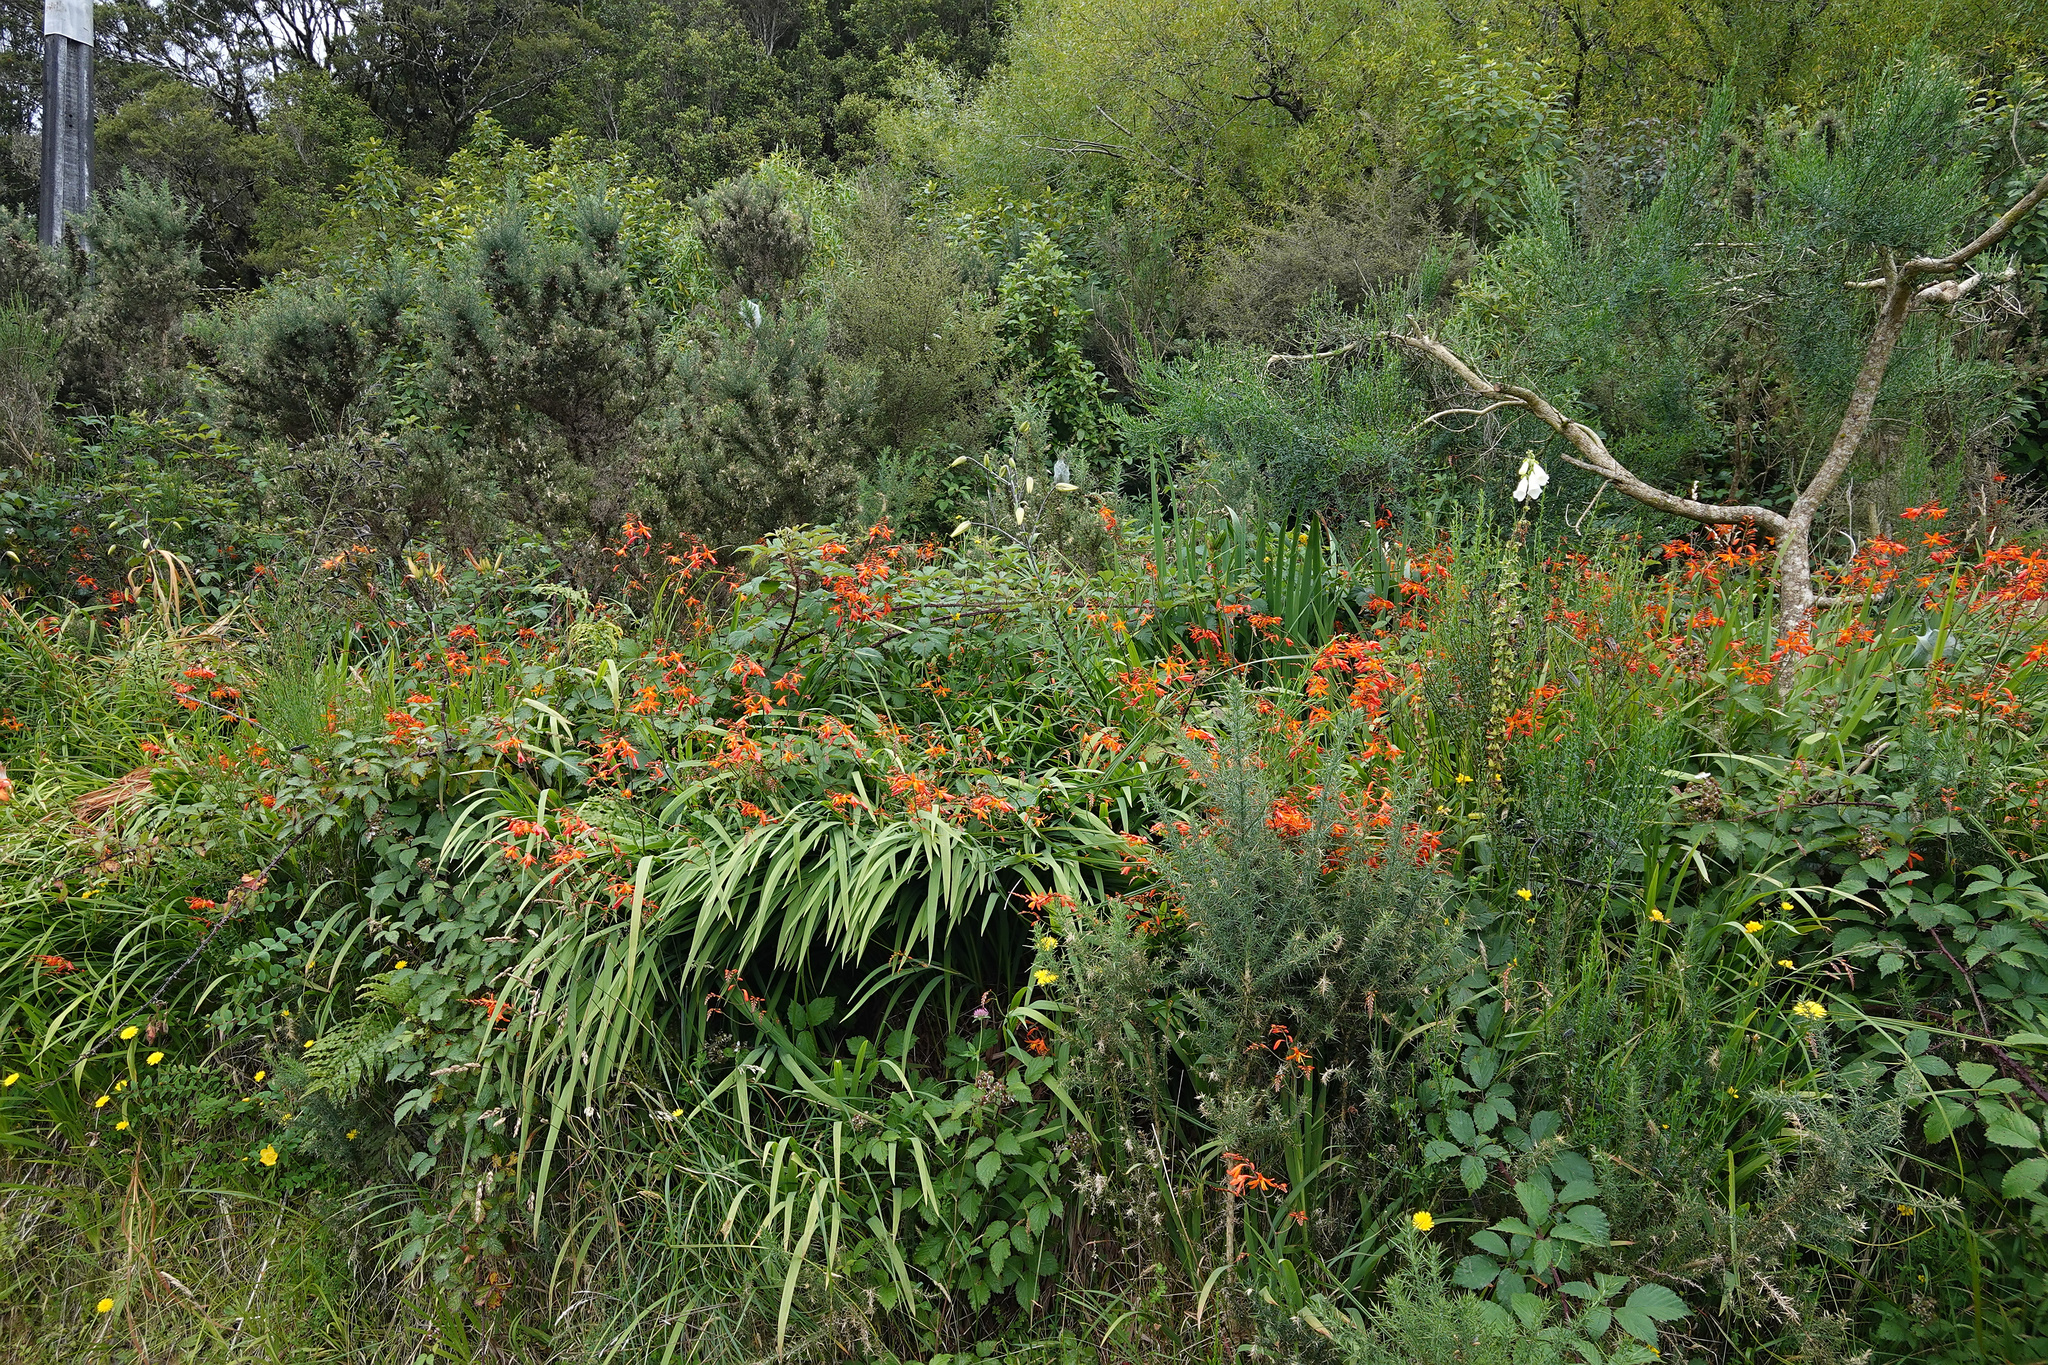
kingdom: Plantae
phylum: Tracheophyta
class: Liliopsida
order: Asparagales
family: Iridaceae
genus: Crocosmia
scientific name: Crocosmia crocosmiiflora
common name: Montbretia
